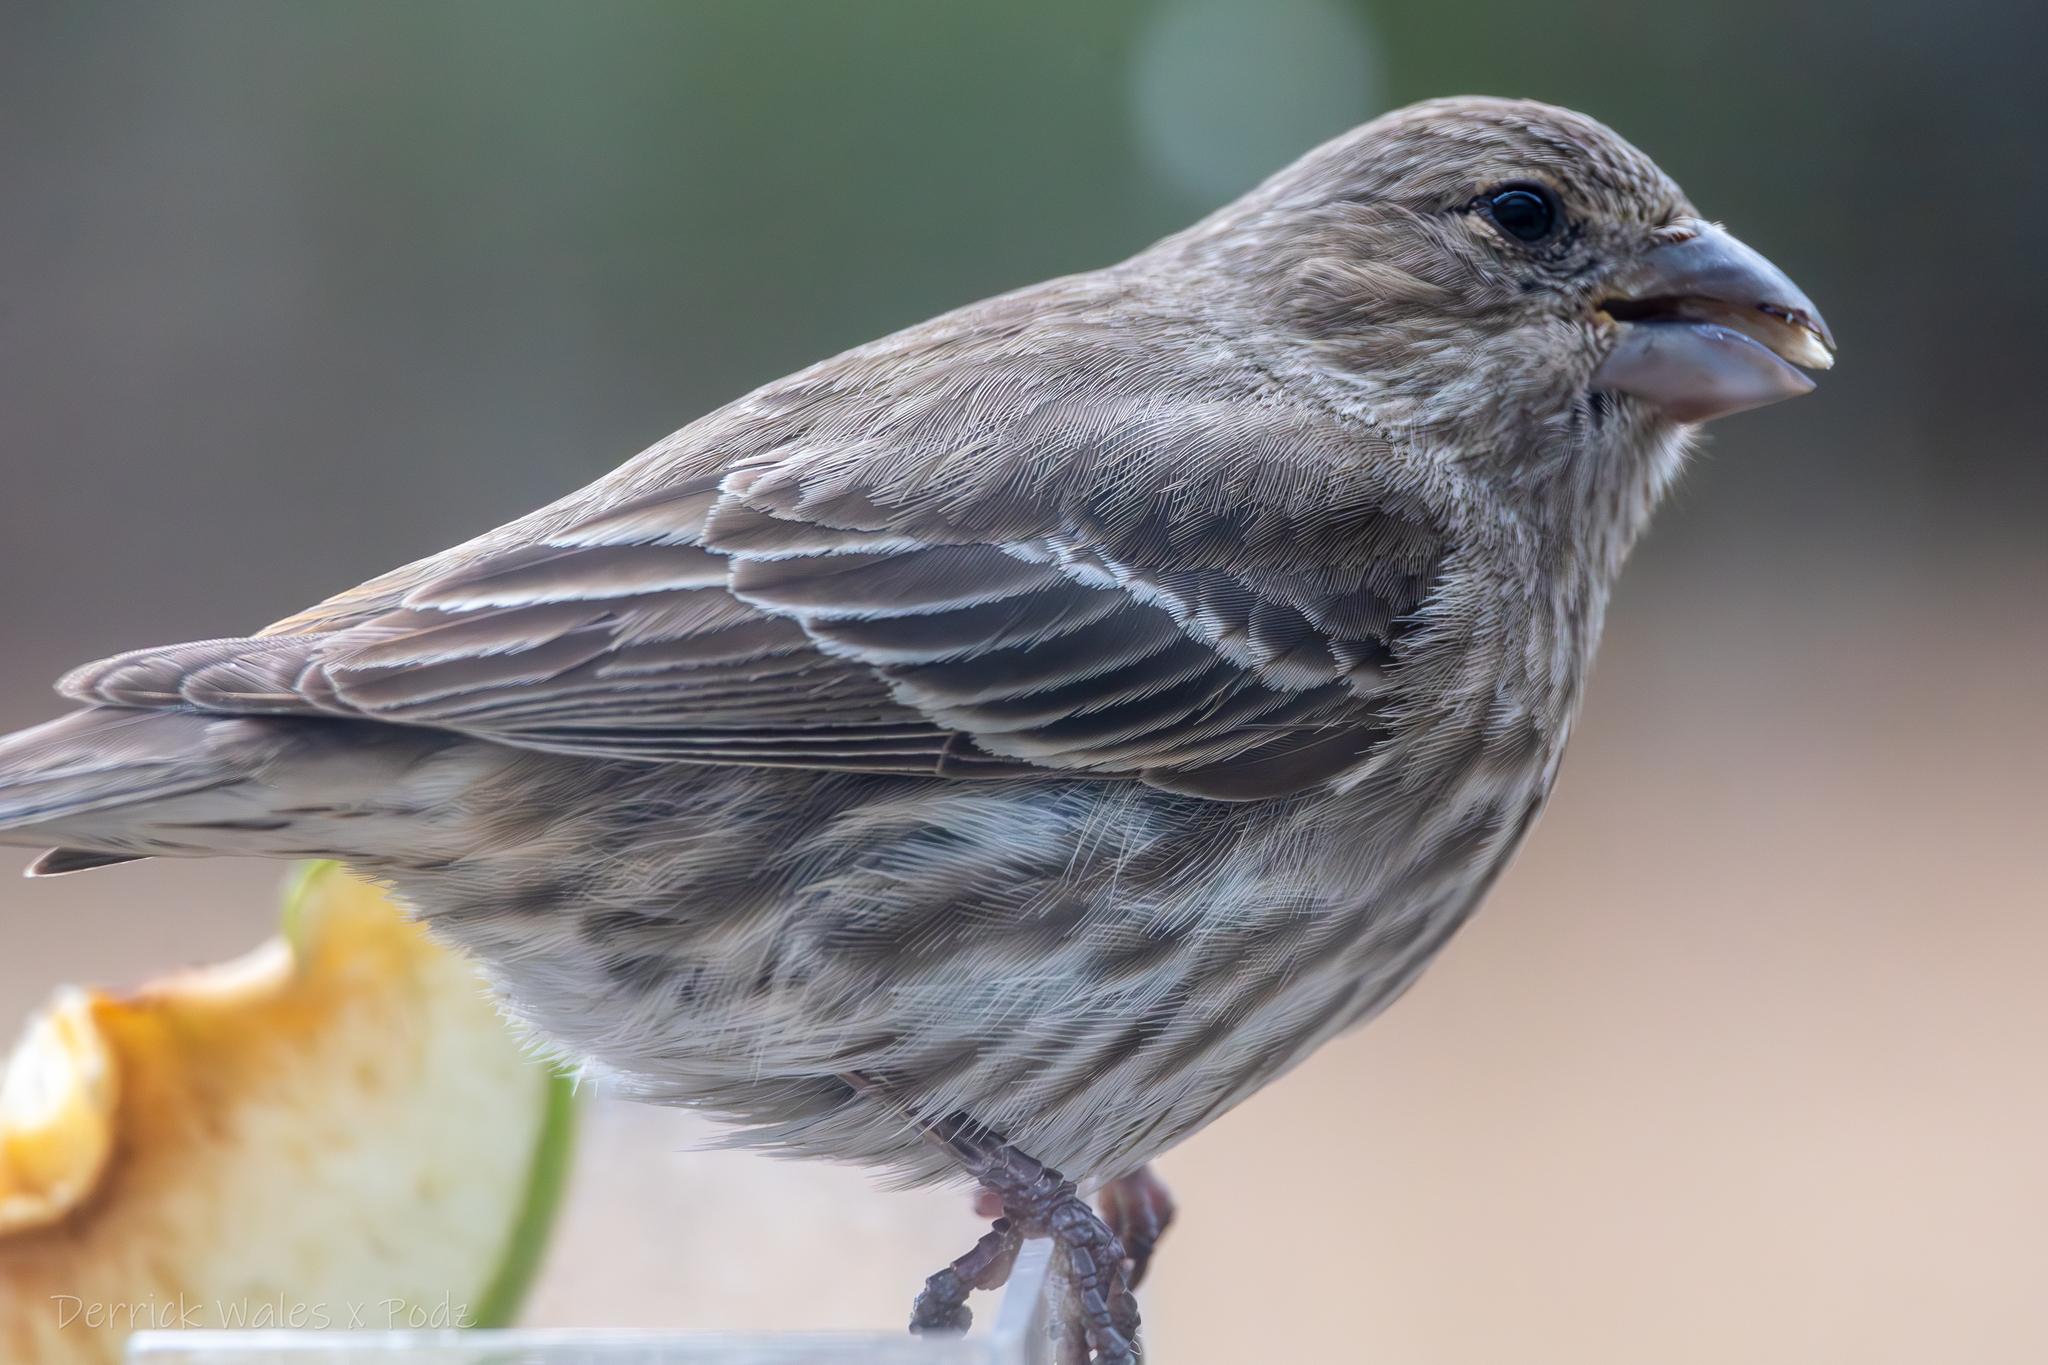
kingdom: Animalia
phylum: Chordata
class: Aves
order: Passeriformes
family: Fringillidae
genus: Haemorhous
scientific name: Haemorhous mexicanus
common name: House finch
